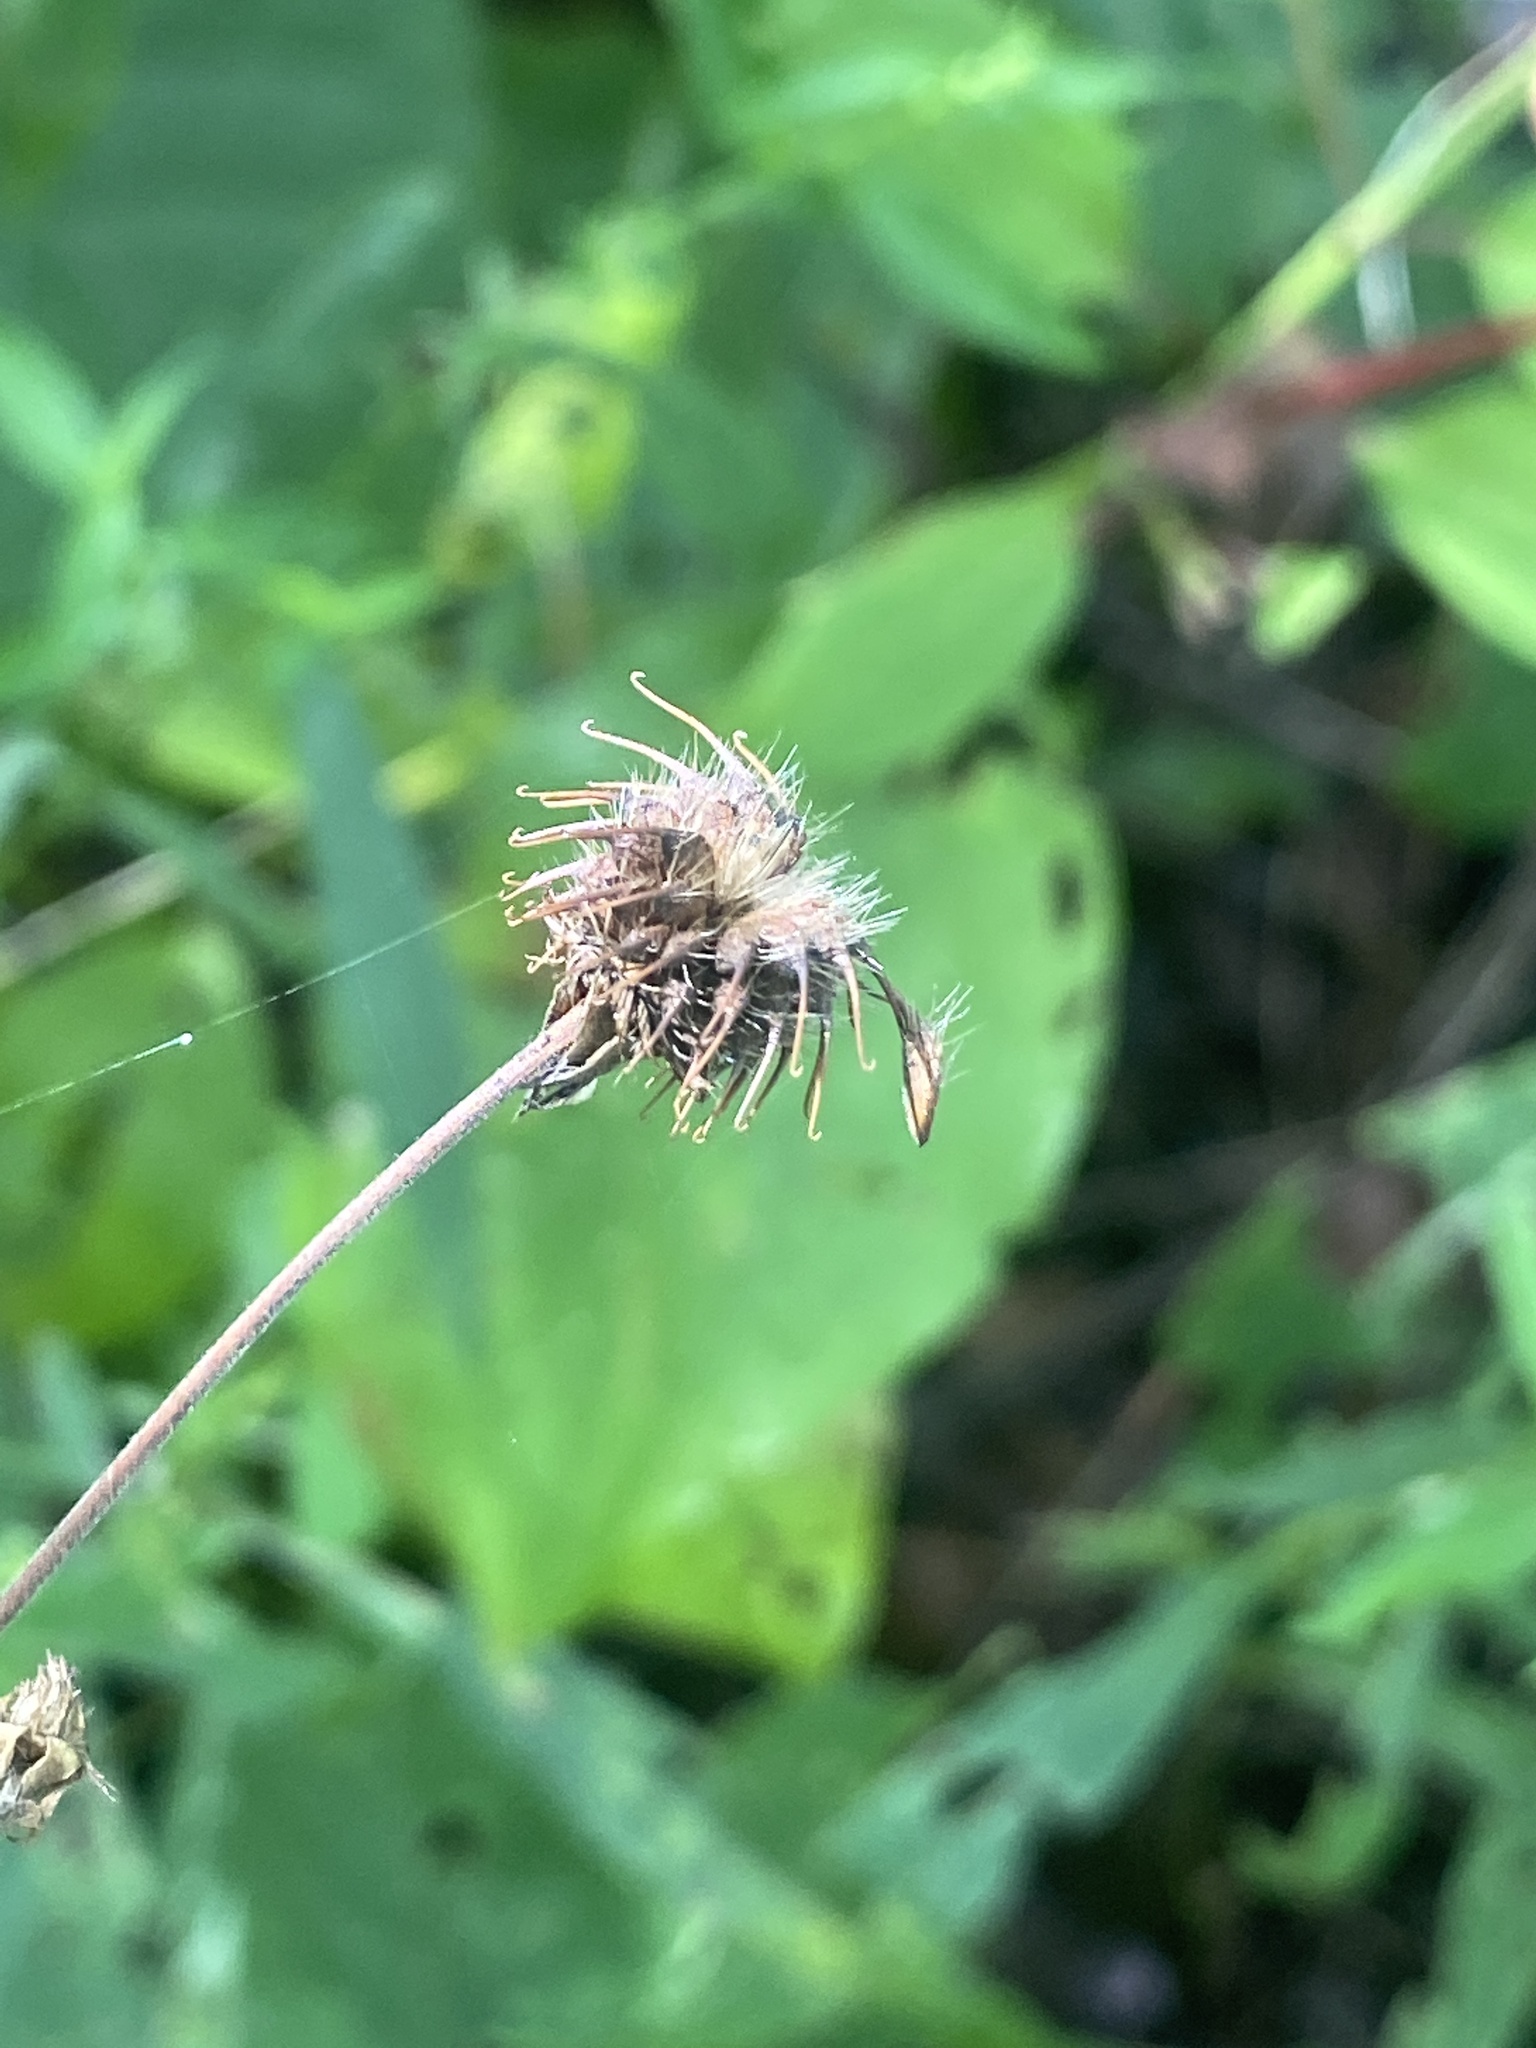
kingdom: Plantae
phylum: Tracheophyta
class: Magnoliopsida
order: Rosales
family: Rosaceae
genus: Geum
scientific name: Geum canadense
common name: White avens
